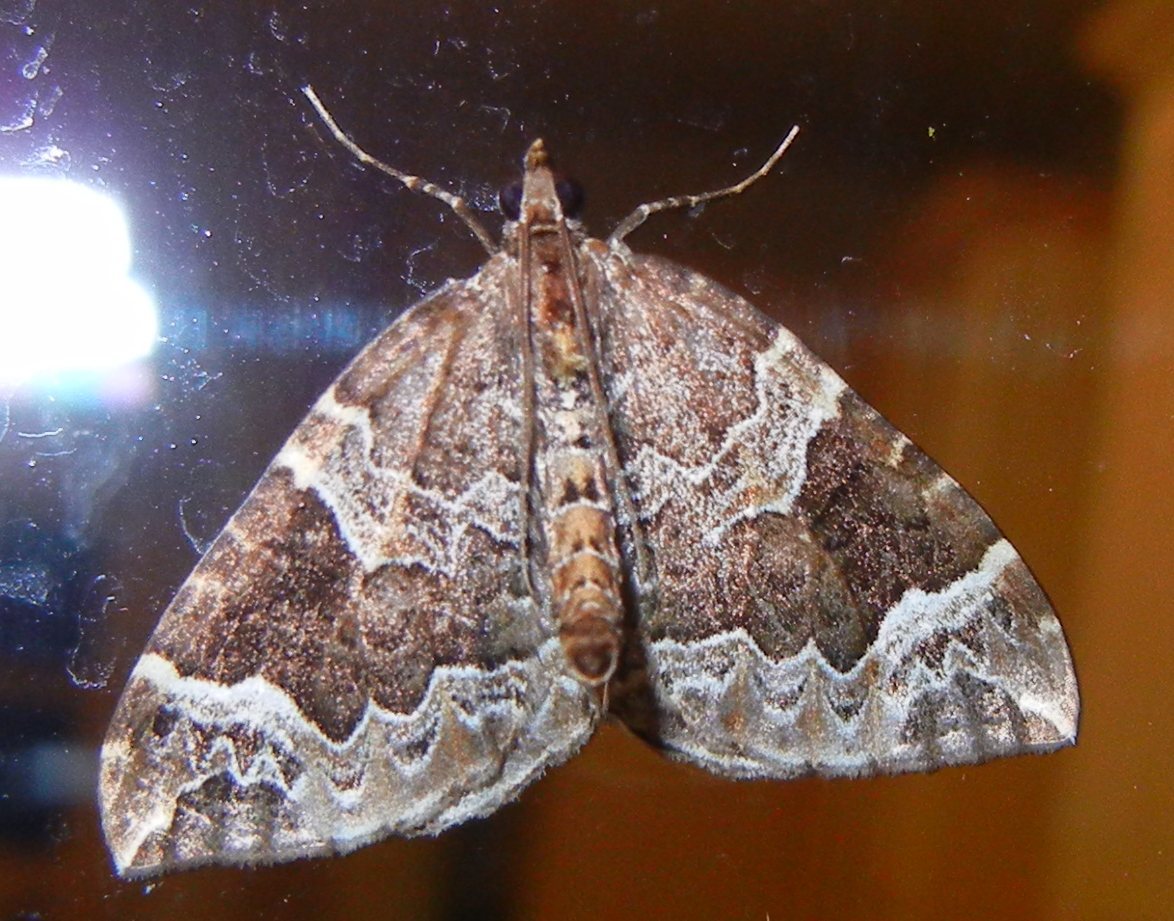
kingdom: Animalia
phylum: Arthropoda
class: Insecta
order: Lepidoptera
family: Geometridae
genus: Eulithis
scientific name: Eulithis prunata
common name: Phoenix
